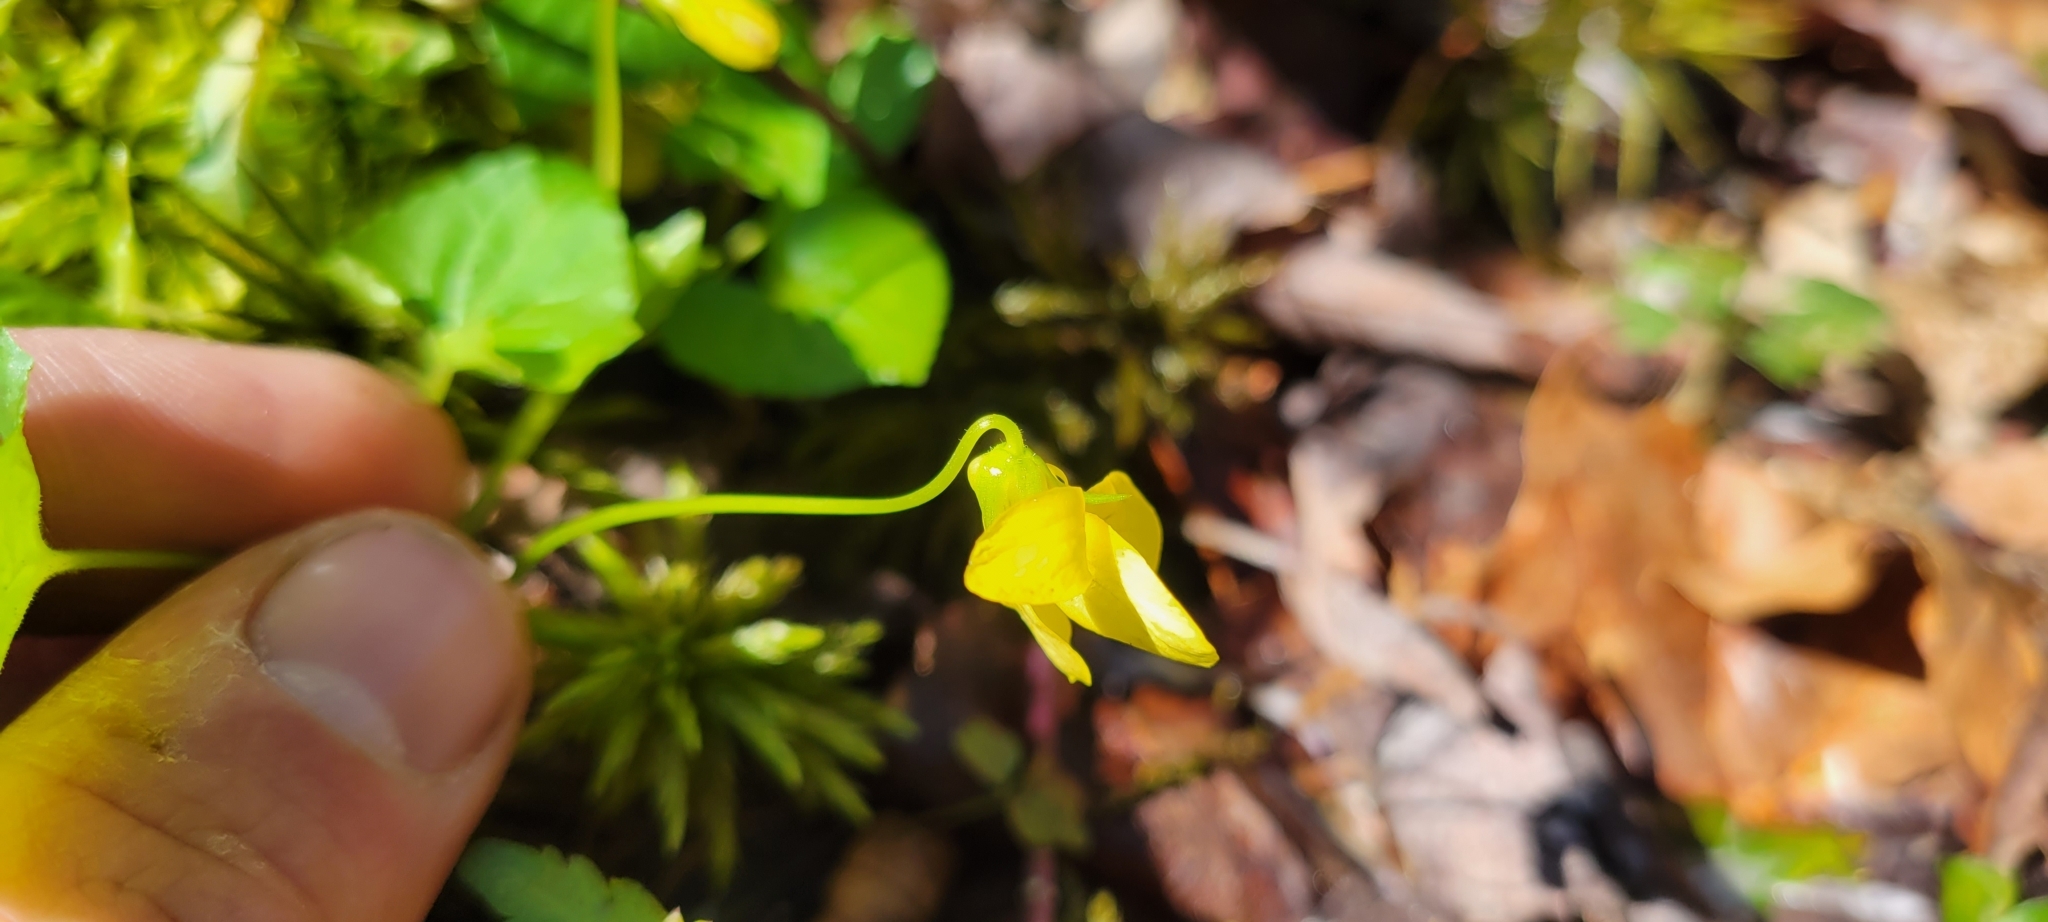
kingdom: Plantae
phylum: Tracheophyta
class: Magnoliopsida
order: Malpighiales
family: Violaceae
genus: Viola
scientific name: Viola eriocarpa
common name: Smooth yellow violet
